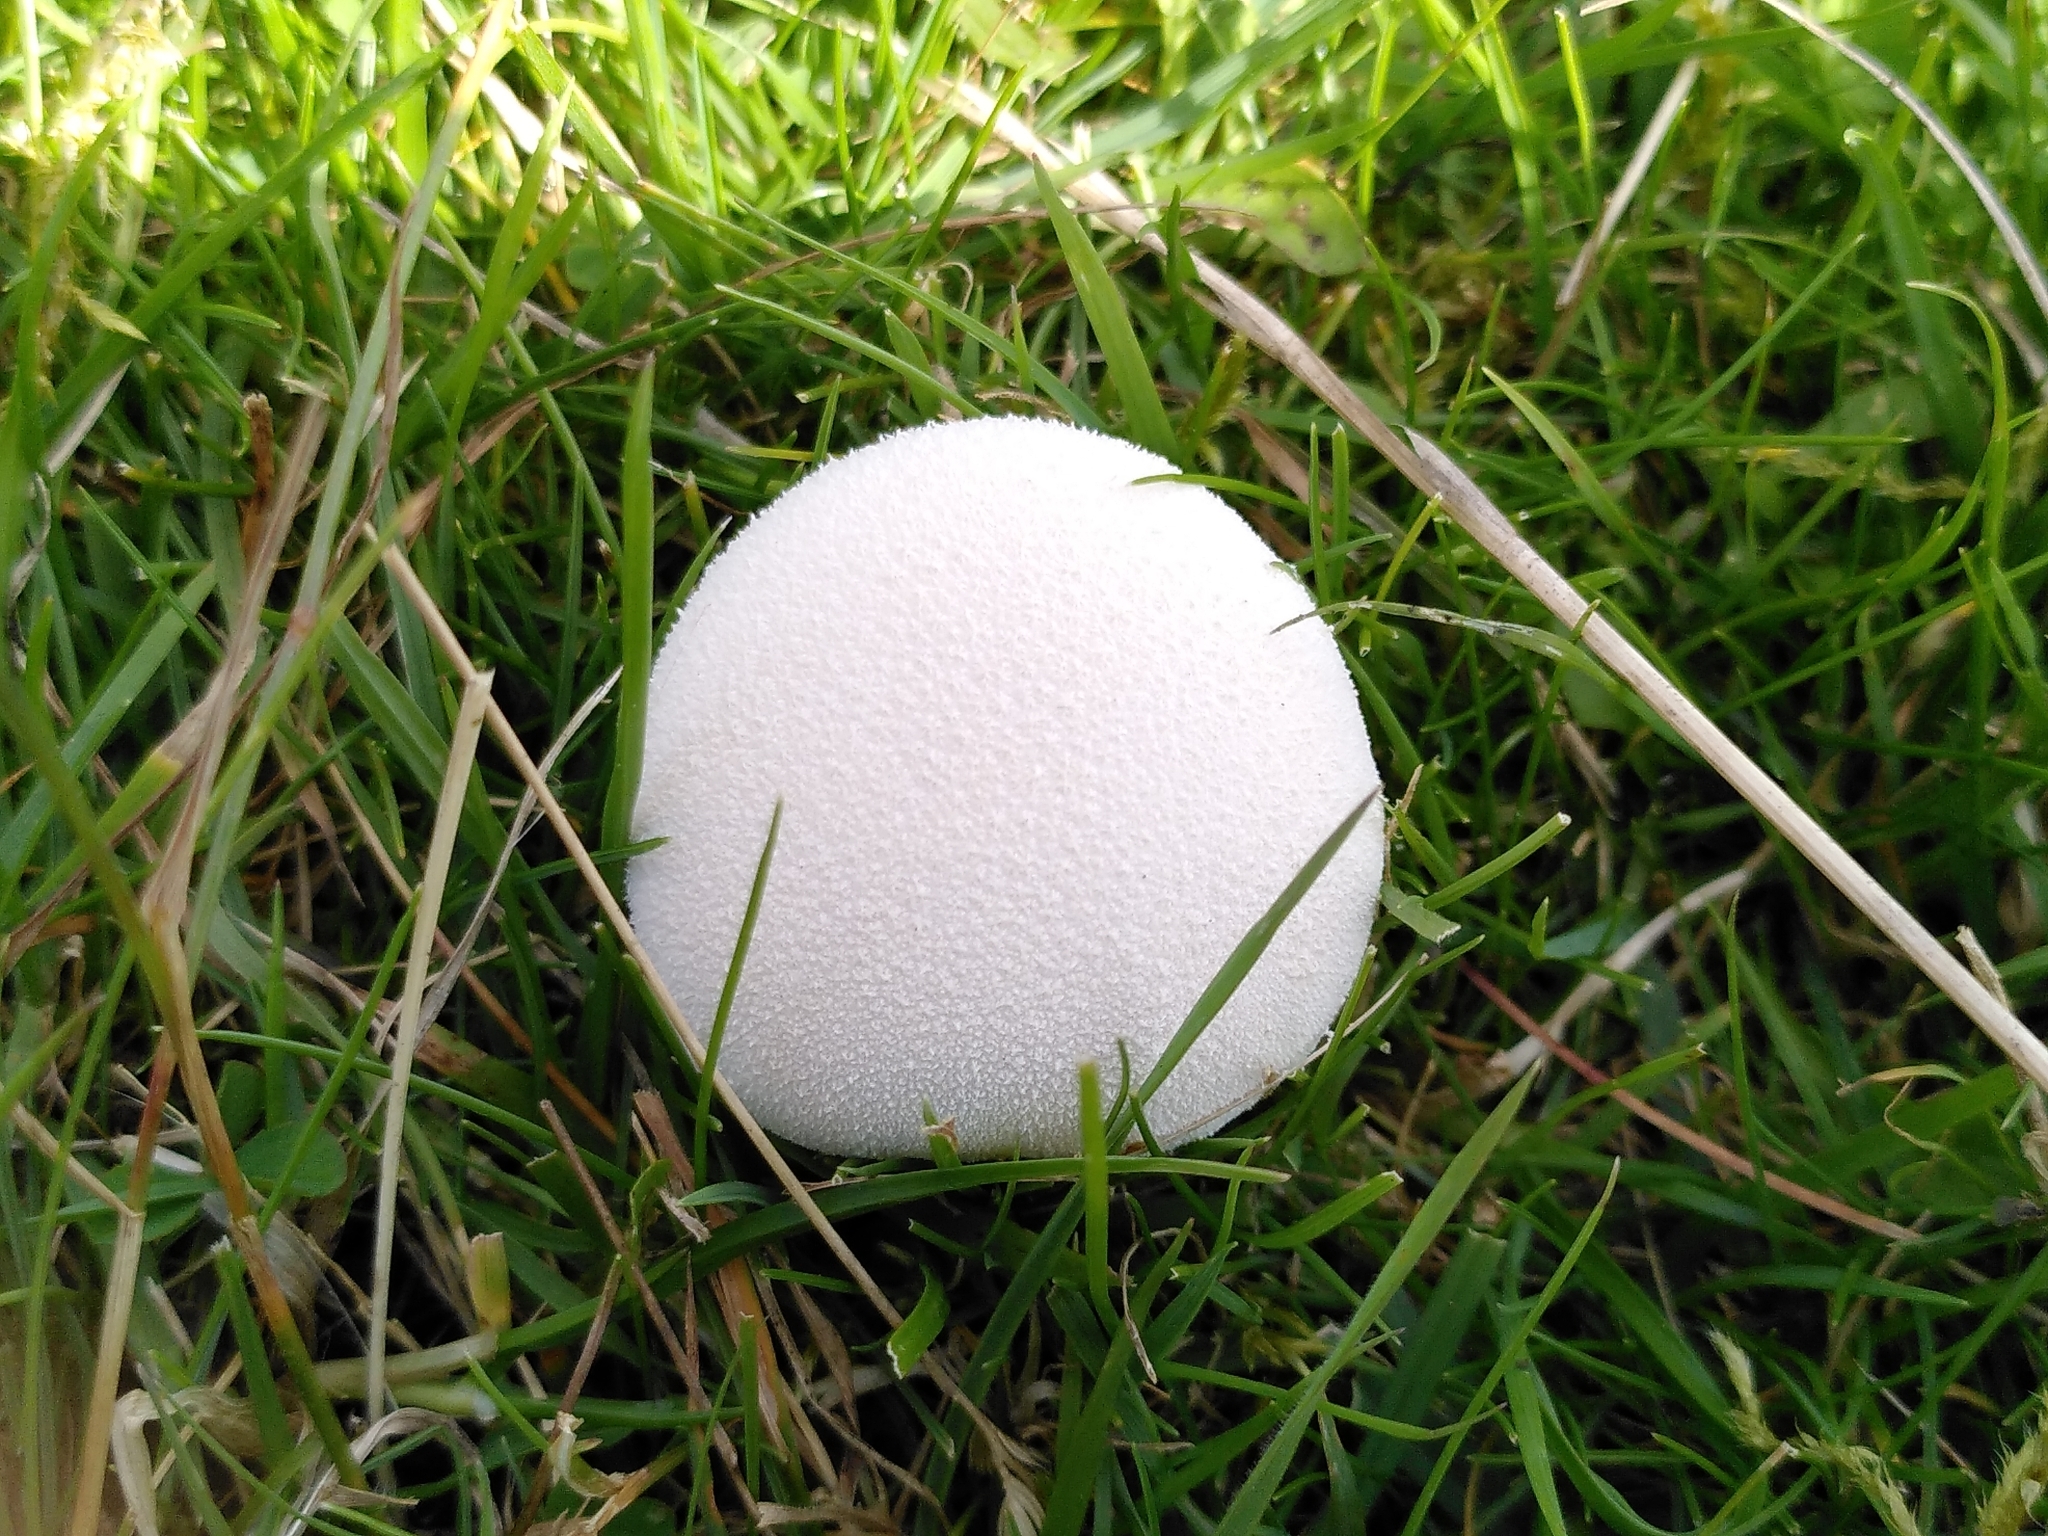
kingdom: Fungi
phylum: Basidiomycota
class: Agaricomycetes
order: Agaricales
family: Lycoperdaceae
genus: Lycoperdon
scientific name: Lycoperdon pratense
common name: Meadow puffball
